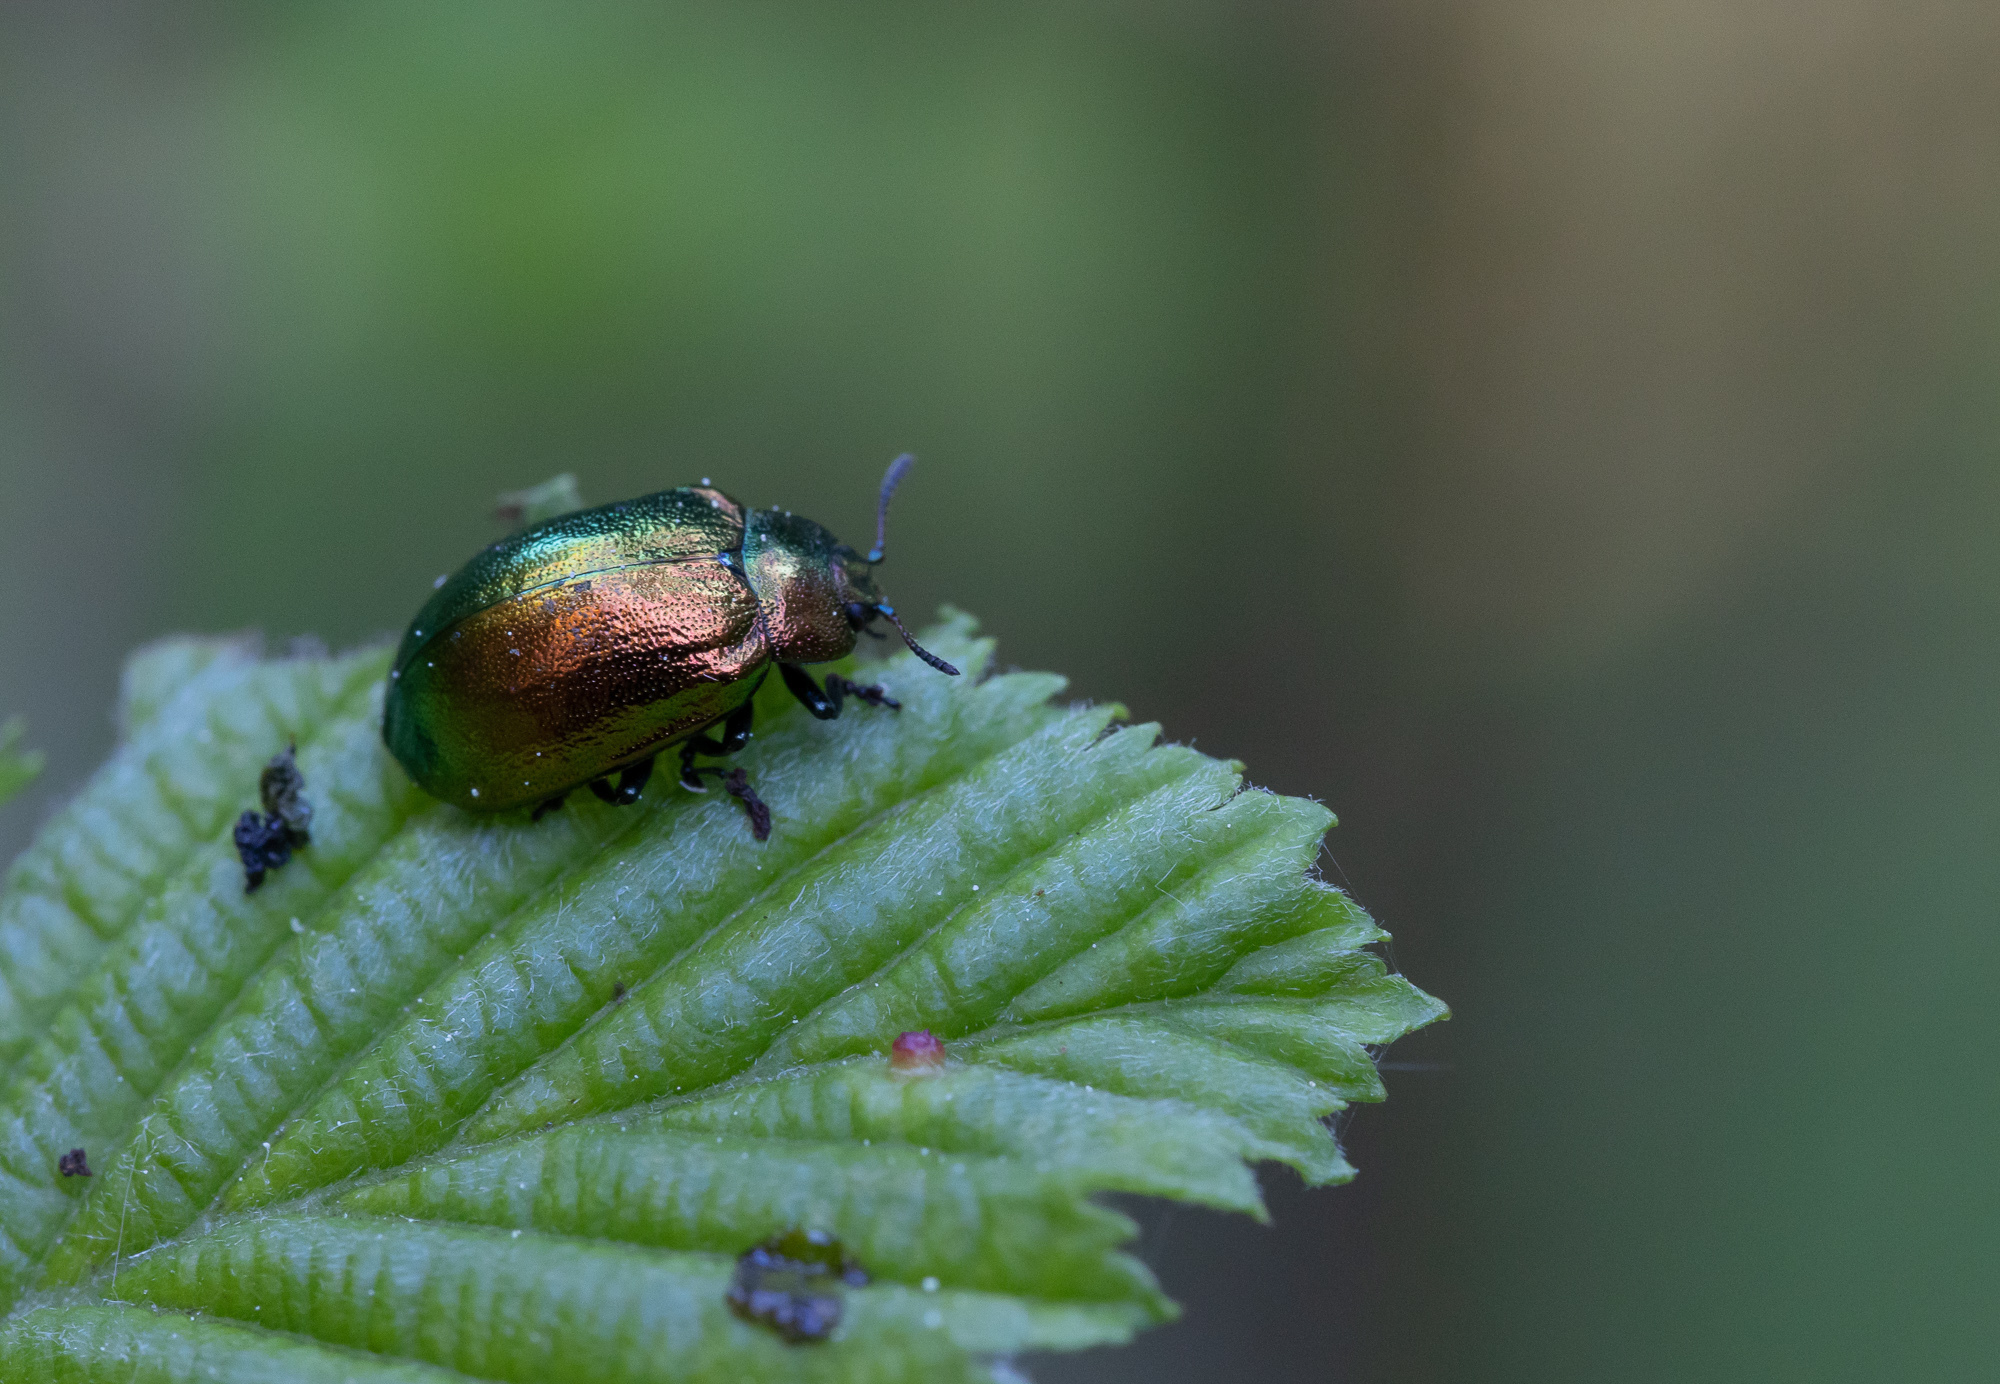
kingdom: Animalia
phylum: Arthropoda
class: Insecta
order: Coleoptera
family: Chrysomelidae
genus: Plagiosterna
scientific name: Plagiosterna aenea
